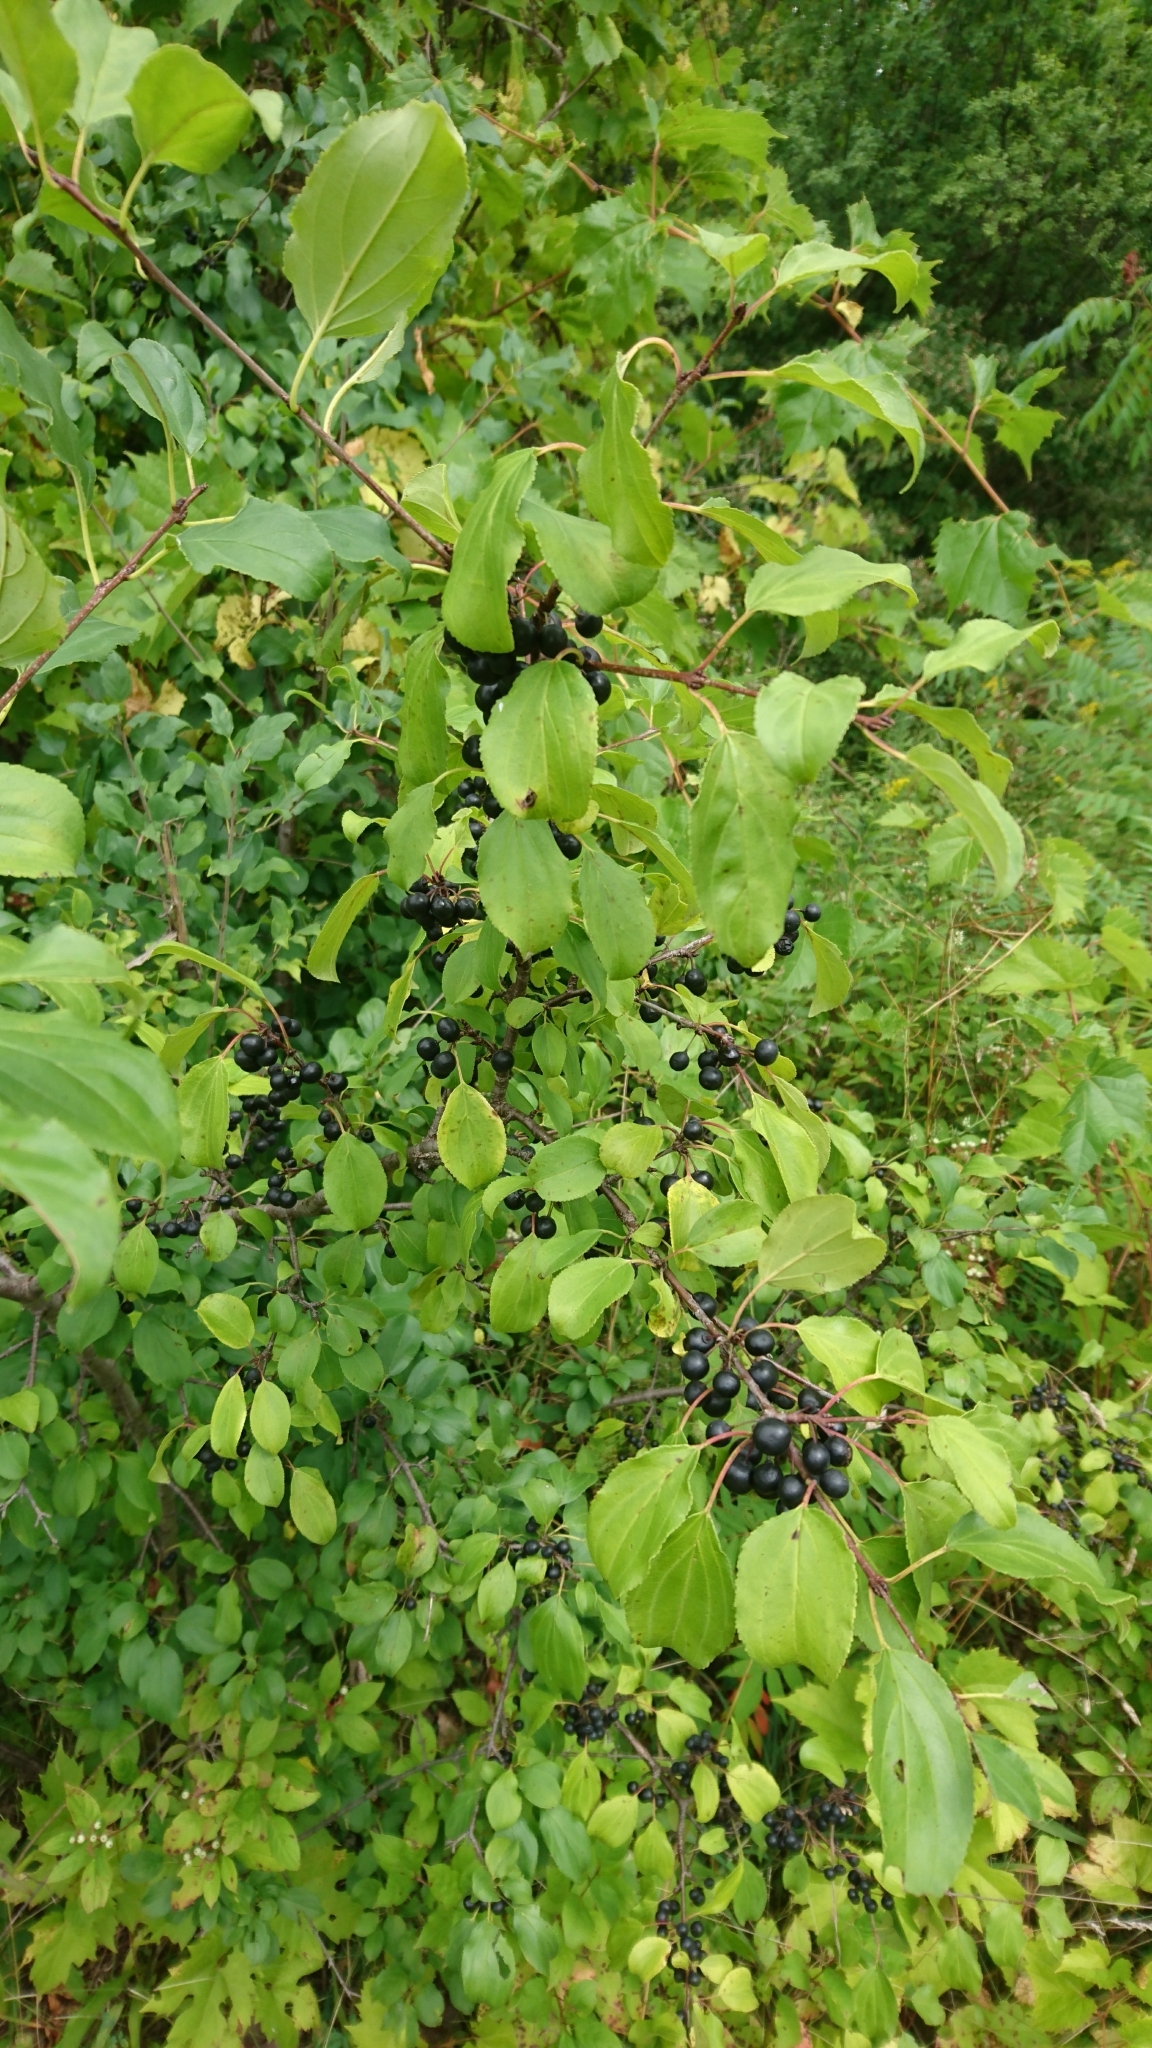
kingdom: Plantae
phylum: Tracheophyta
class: Magnoliopsida
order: Rosales
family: Rhamnaceae
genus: Rhamnus
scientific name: Rhamnus cathartica
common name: Common buckthorn
